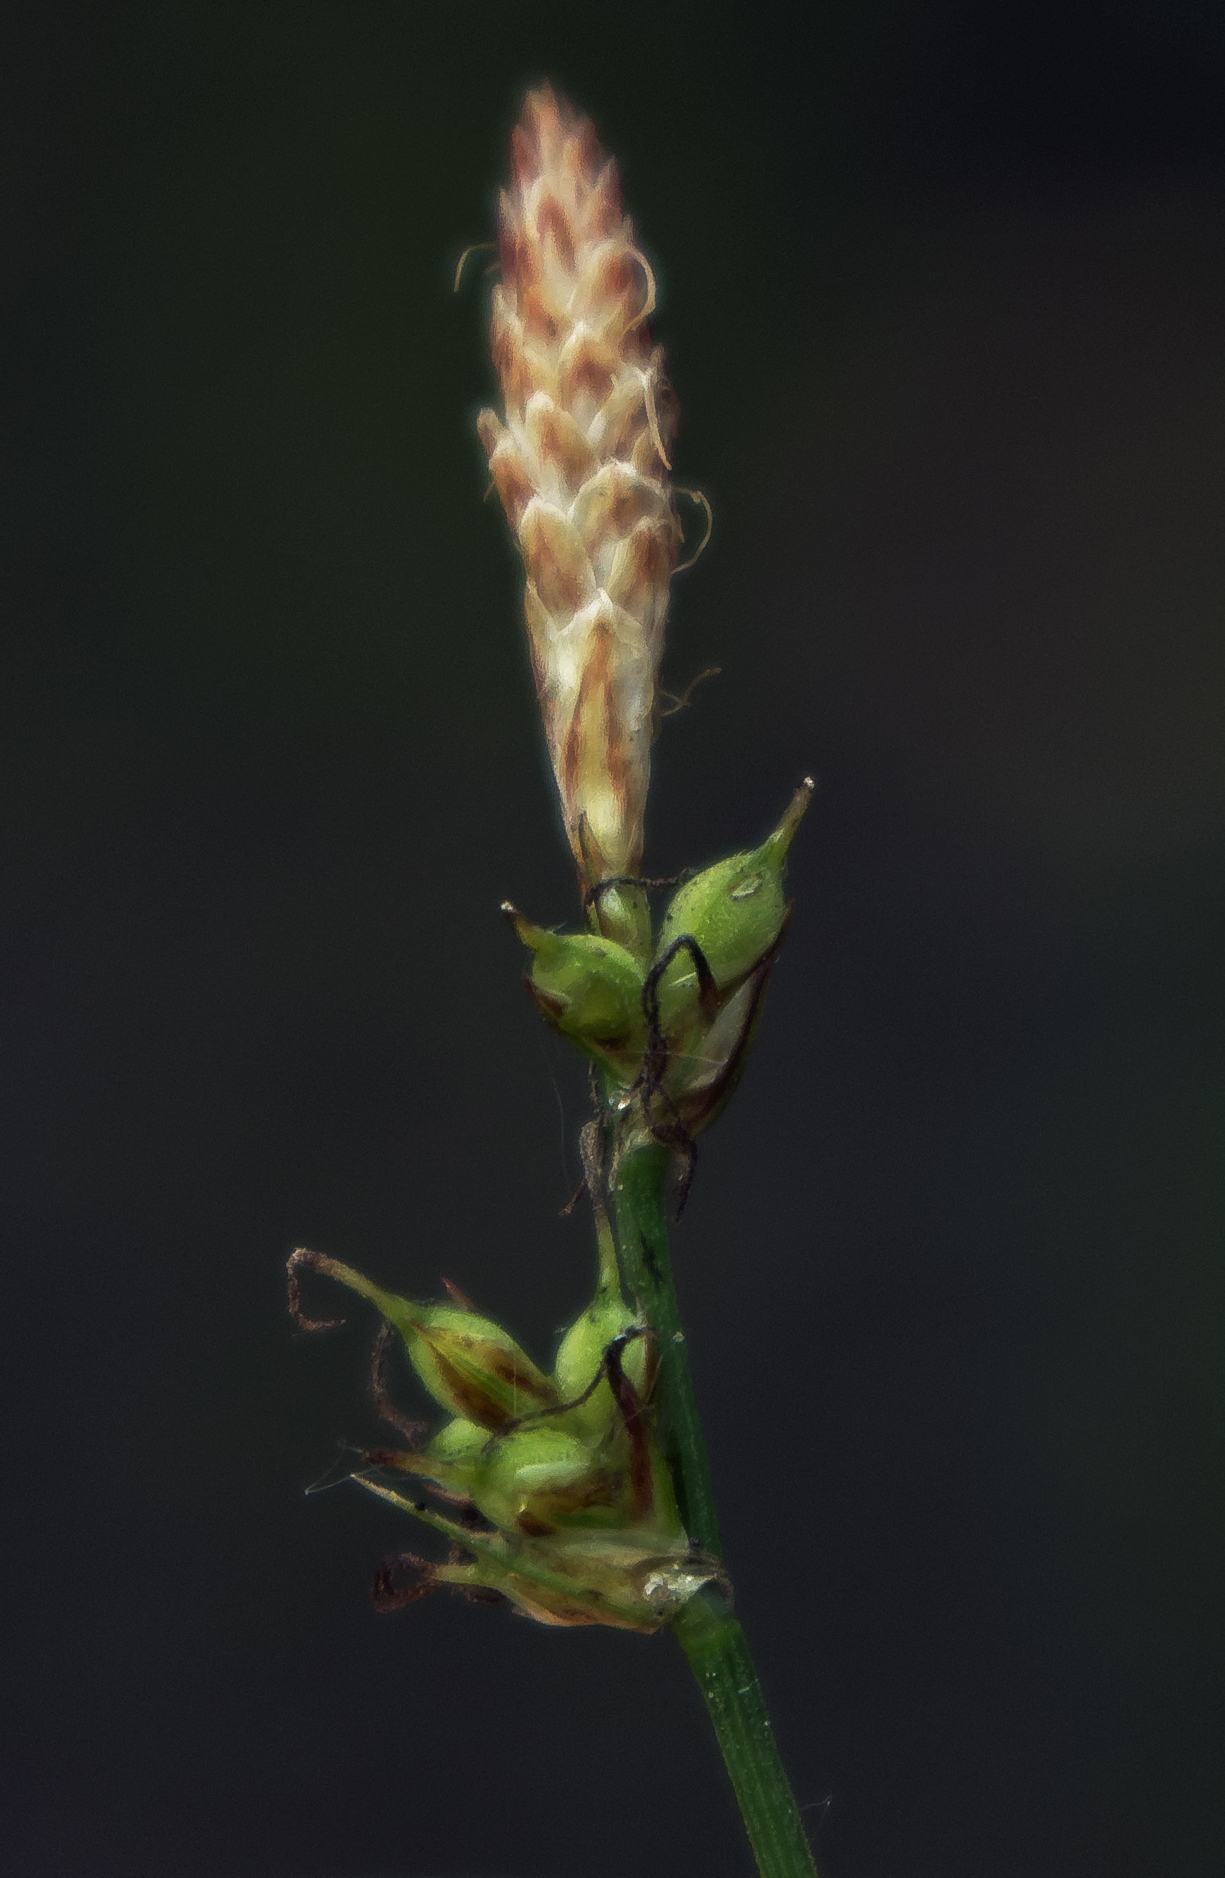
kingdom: Plantae
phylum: Tracheophyta
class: Liliopsida
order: Poales
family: Cyperaceae
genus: Carex
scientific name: Carex pensylvanica
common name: Common oak sedge
